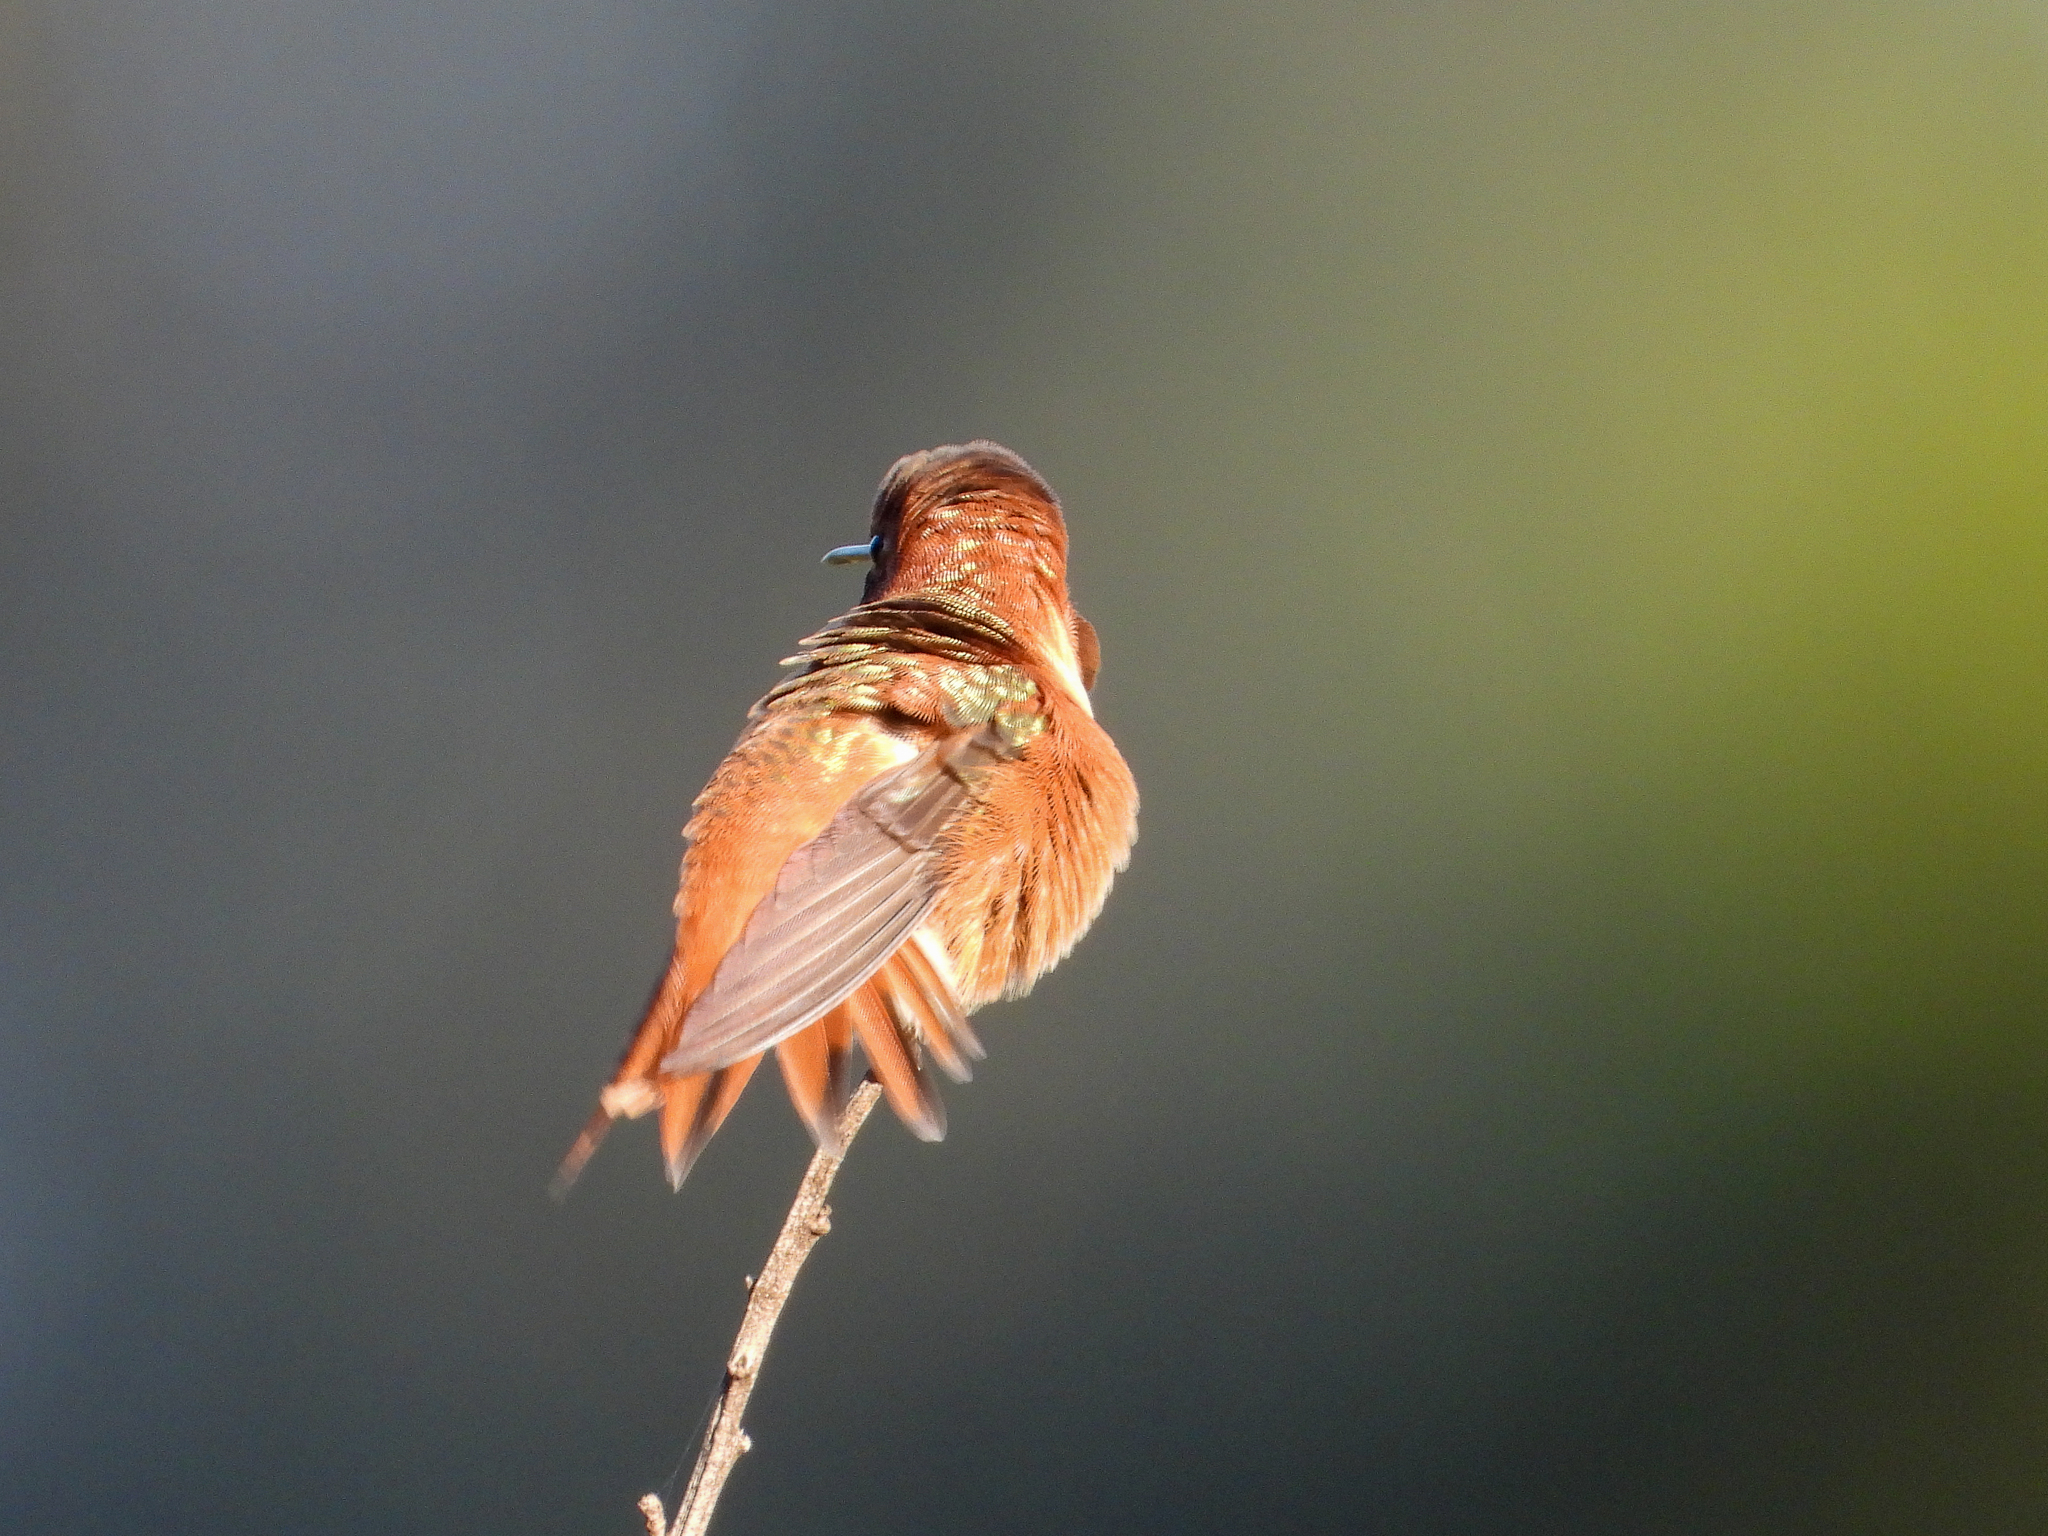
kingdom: Animalia
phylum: Chordata
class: Aves
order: Apodiformes
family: Trochilidae
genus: Selasphorus
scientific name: Selasphorus sasin
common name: Allen's hummingbird
